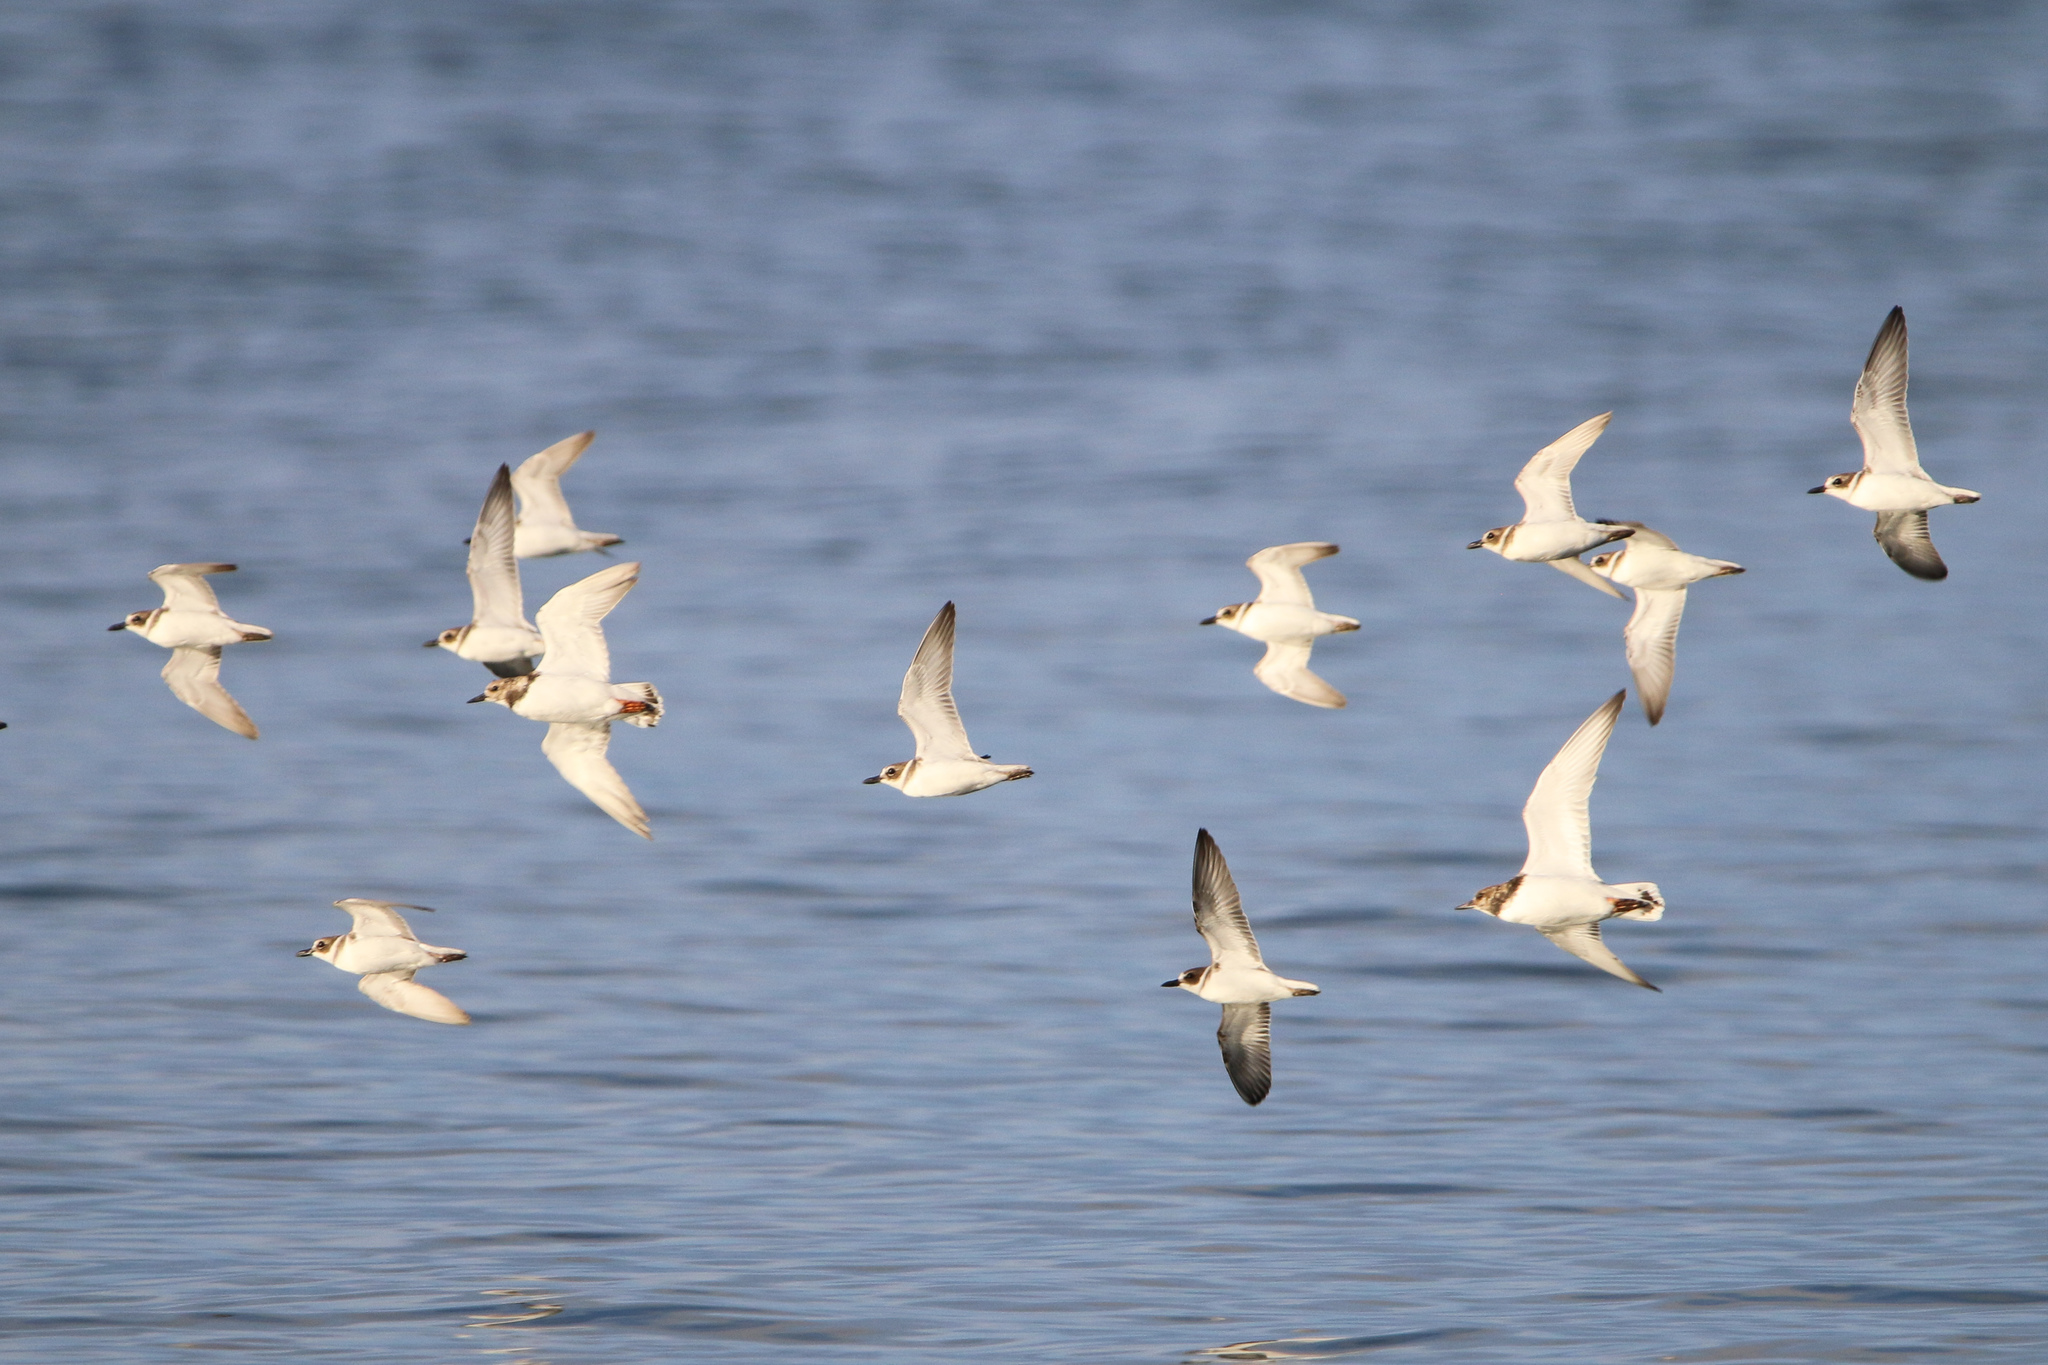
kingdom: Animalia
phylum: Chordata
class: Aves
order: Charadriiformes
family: Charadriidae
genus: Anarhynchus
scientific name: Anarhynchus
